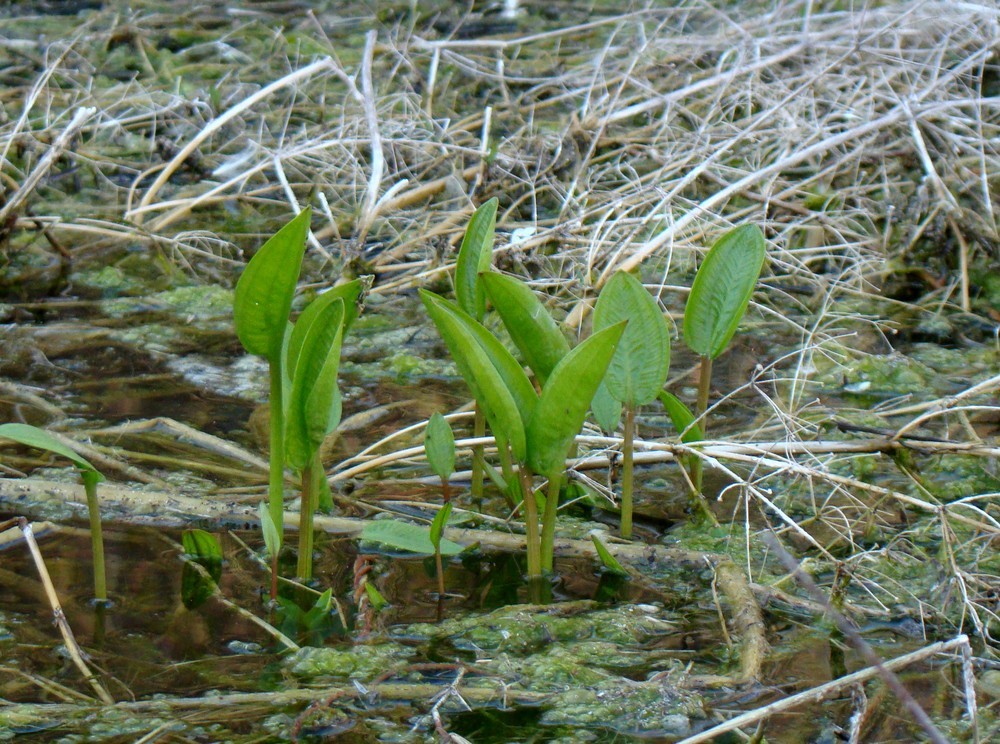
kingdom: Plantae
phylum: Tracheophyta
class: Liliopsida
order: Alismatales
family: Alismataceae
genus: Alisma
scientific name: Alisma plantago-aquatica
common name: Water-plantain
